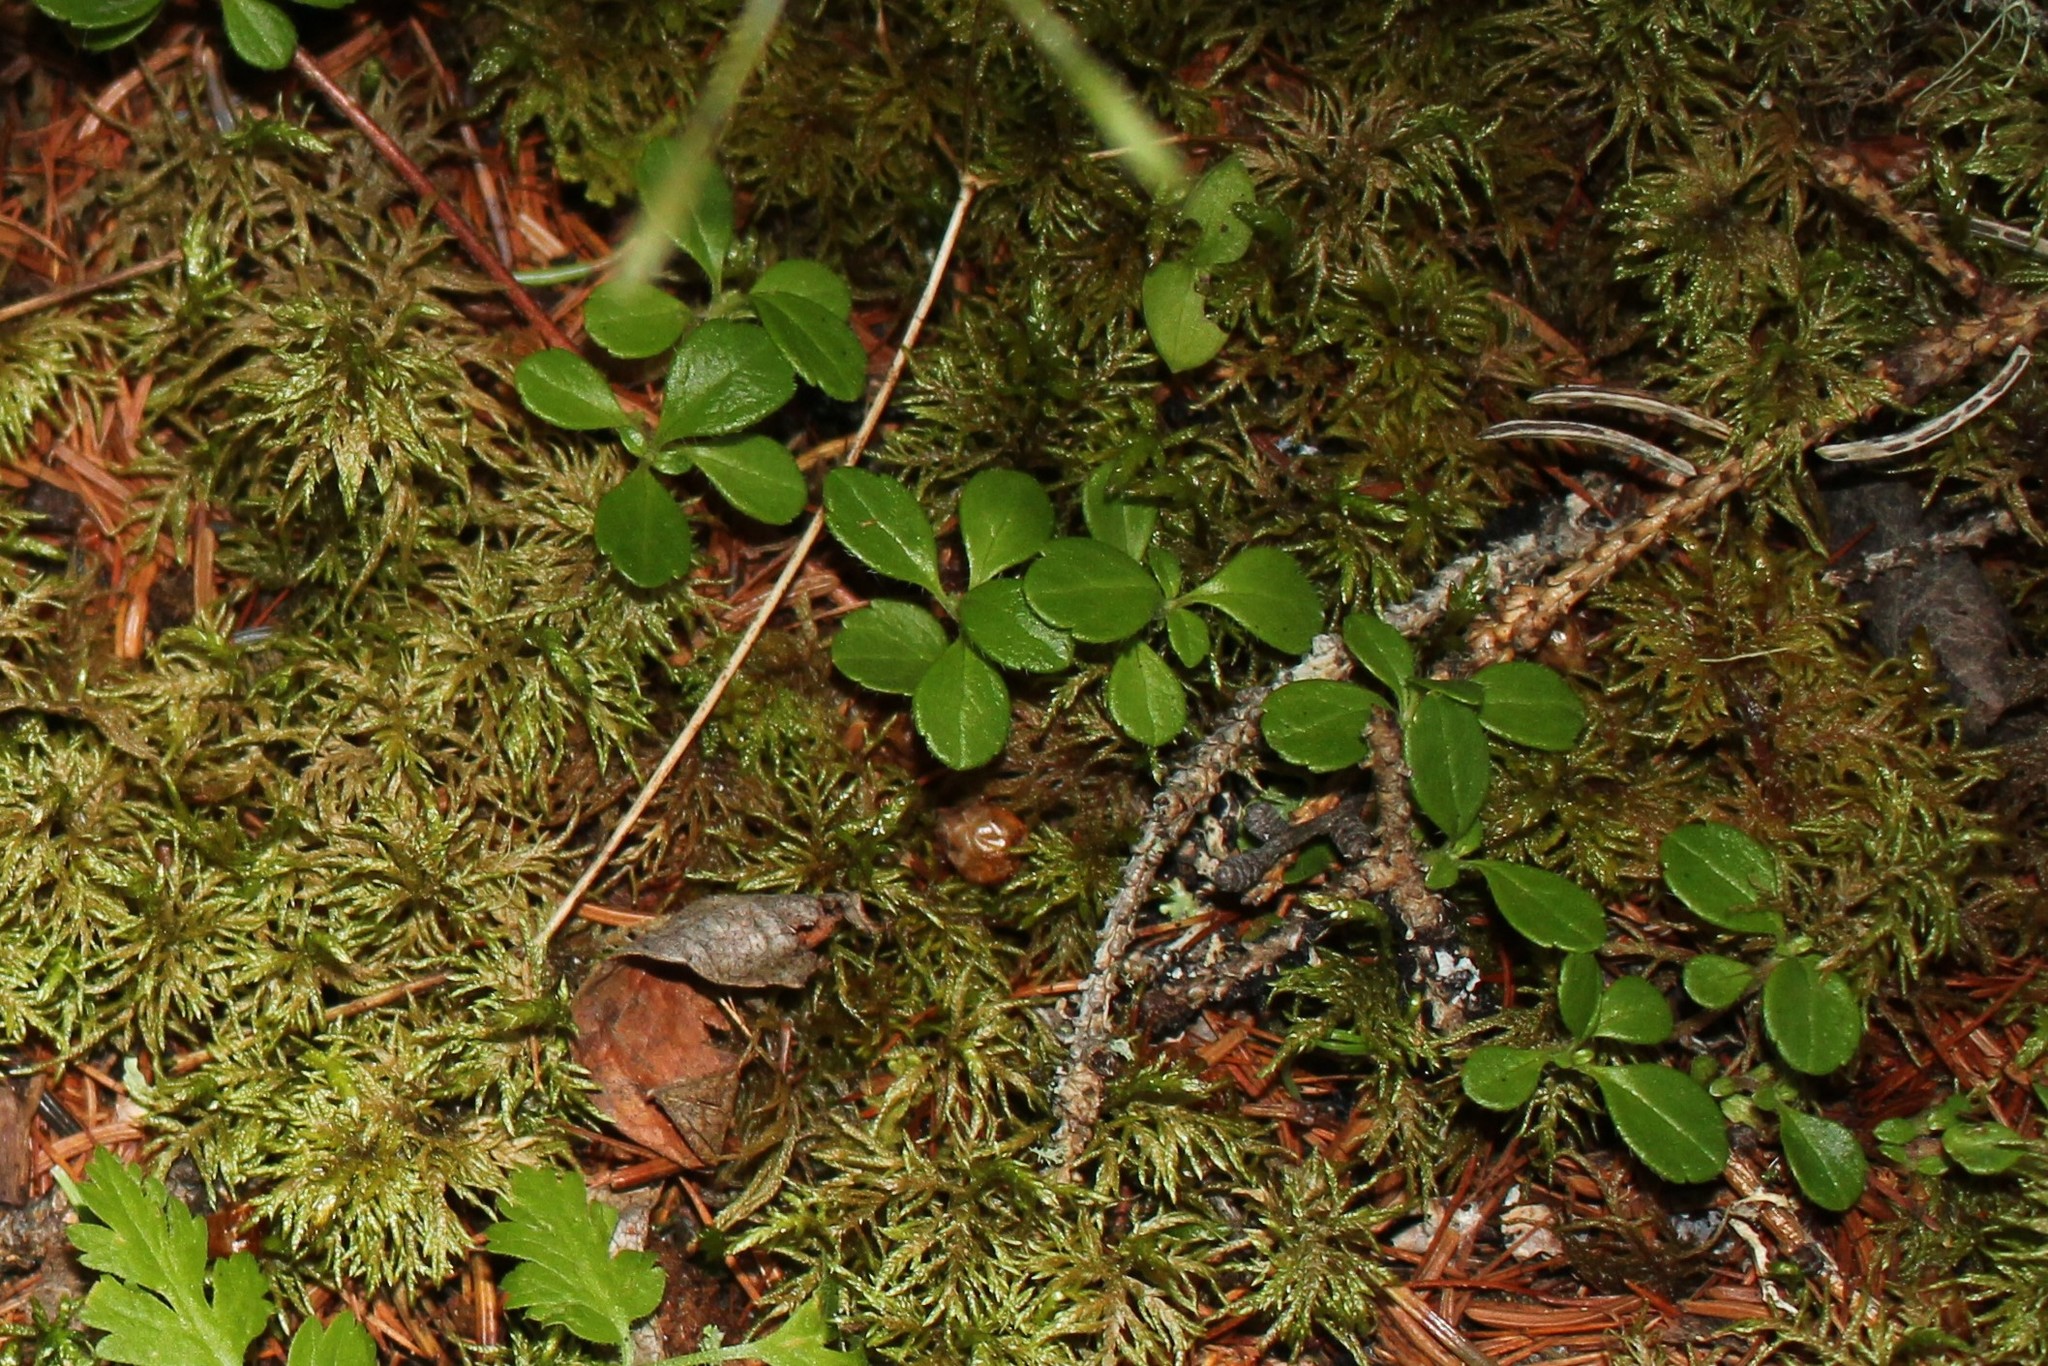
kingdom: Plantae
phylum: Tracheophyta
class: Magnoliopsida
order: Dipsacales
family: Caprifoliaceae
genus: Linnaea
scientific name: Linnaea borealis
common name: Twinflower
